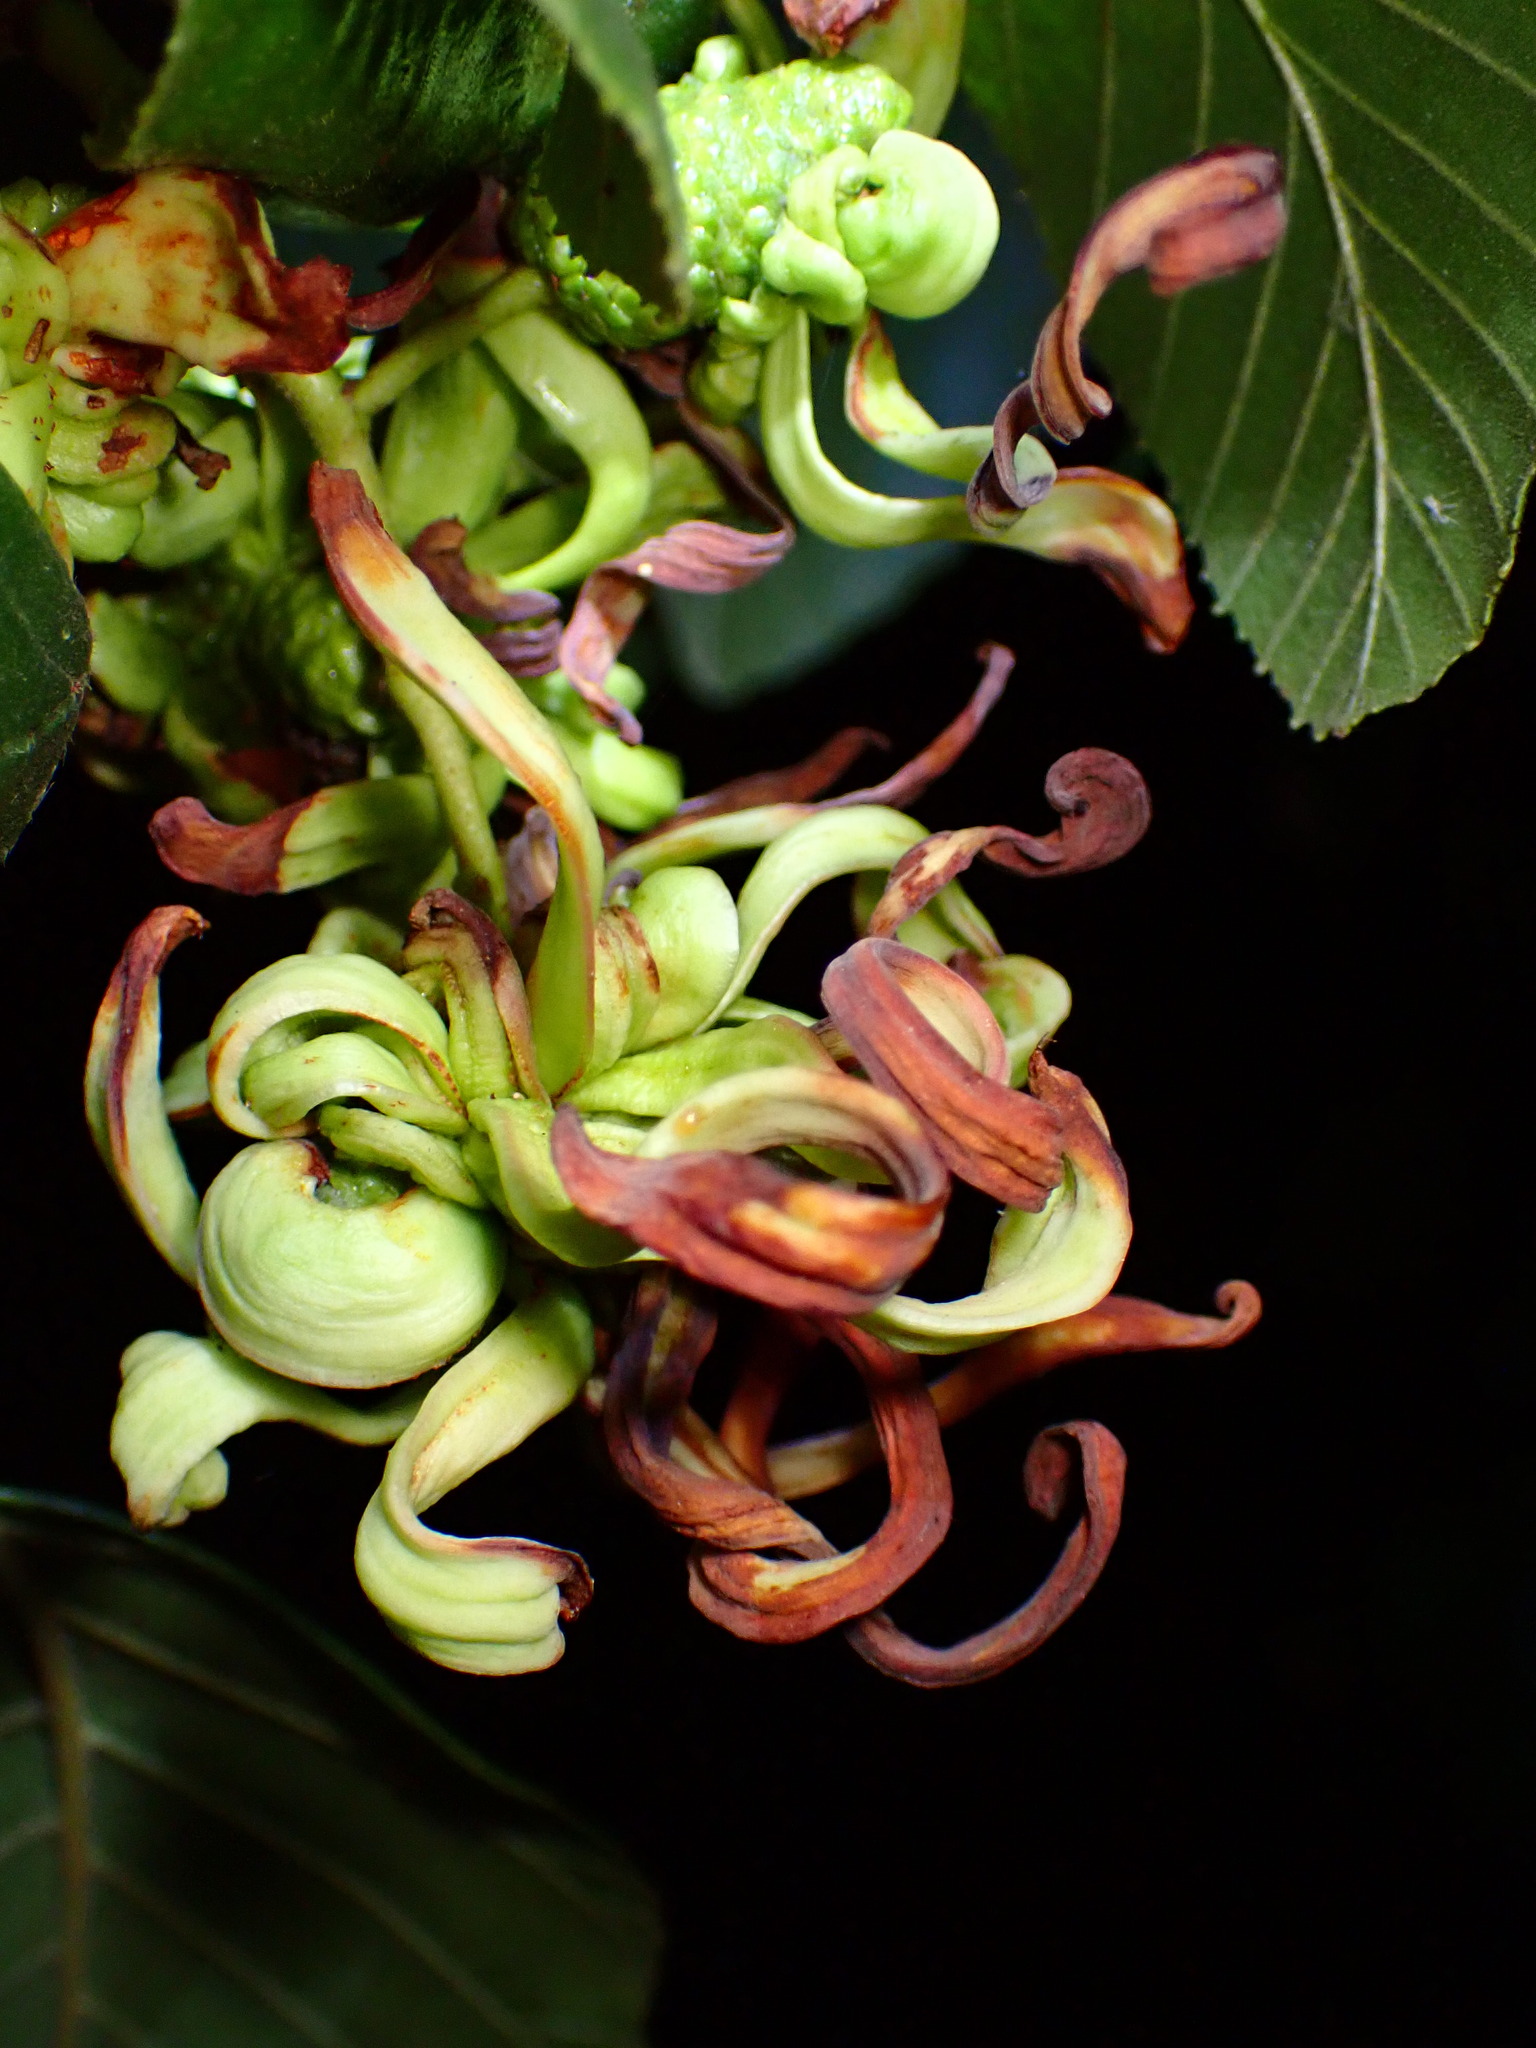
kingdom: Fungi
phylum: Ascomycota
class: Taphrinomycetes
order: Taphrinales
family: Taphrinaceae
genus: Taphrina
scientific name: Taphrina occidentalis
